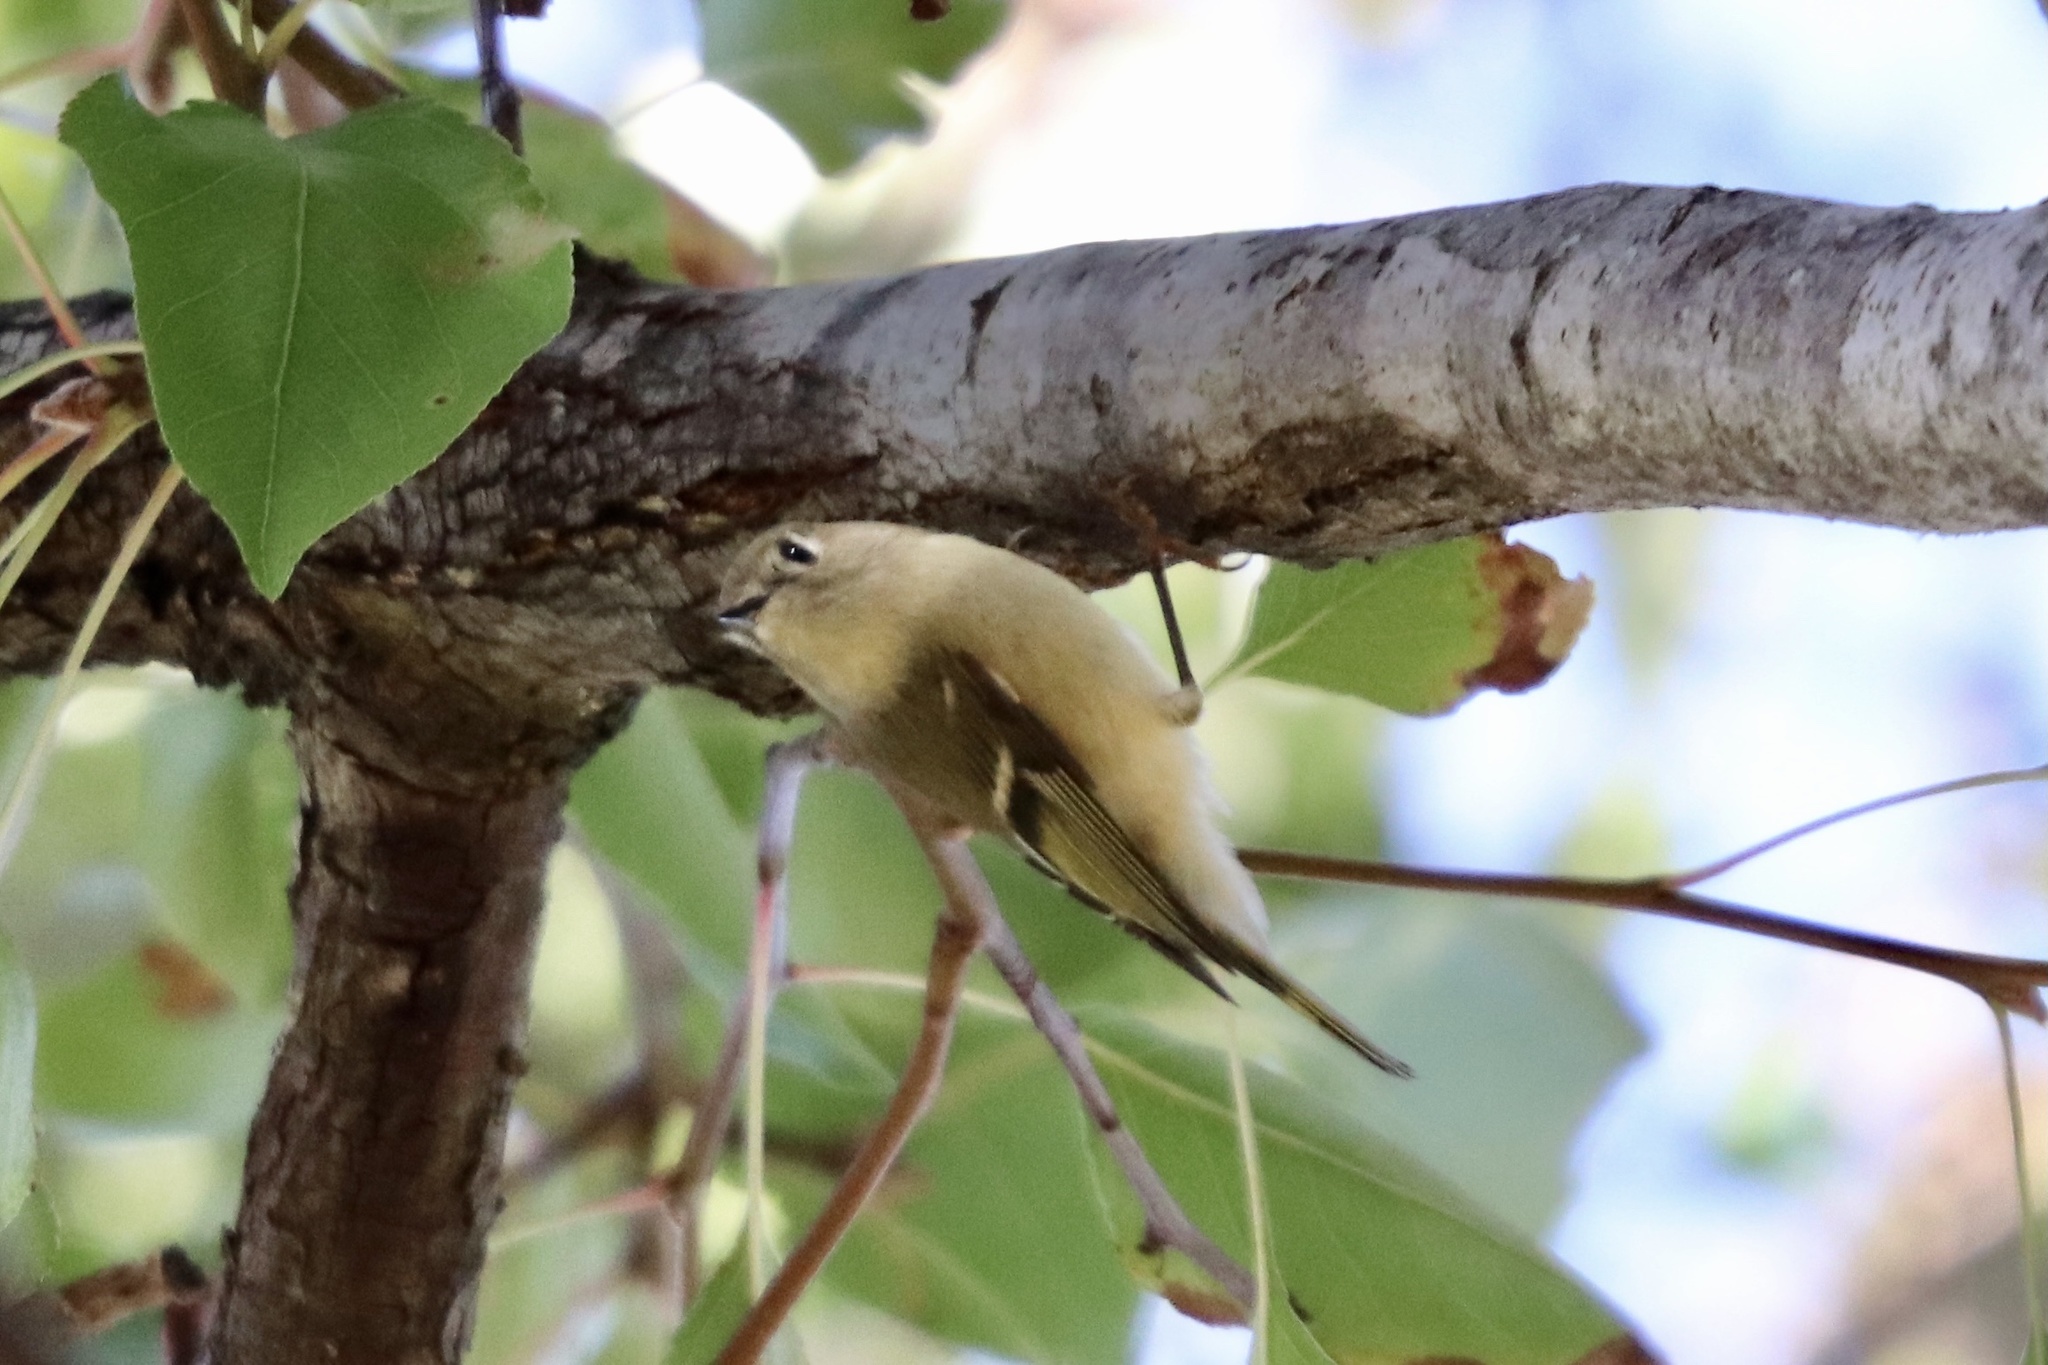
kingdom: Animalia
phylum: Chordata
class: Aves
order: Passeriformes
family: Regulidae
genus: Regulus
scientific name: Regulus calendula
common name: Ruby-crowned kinglet
